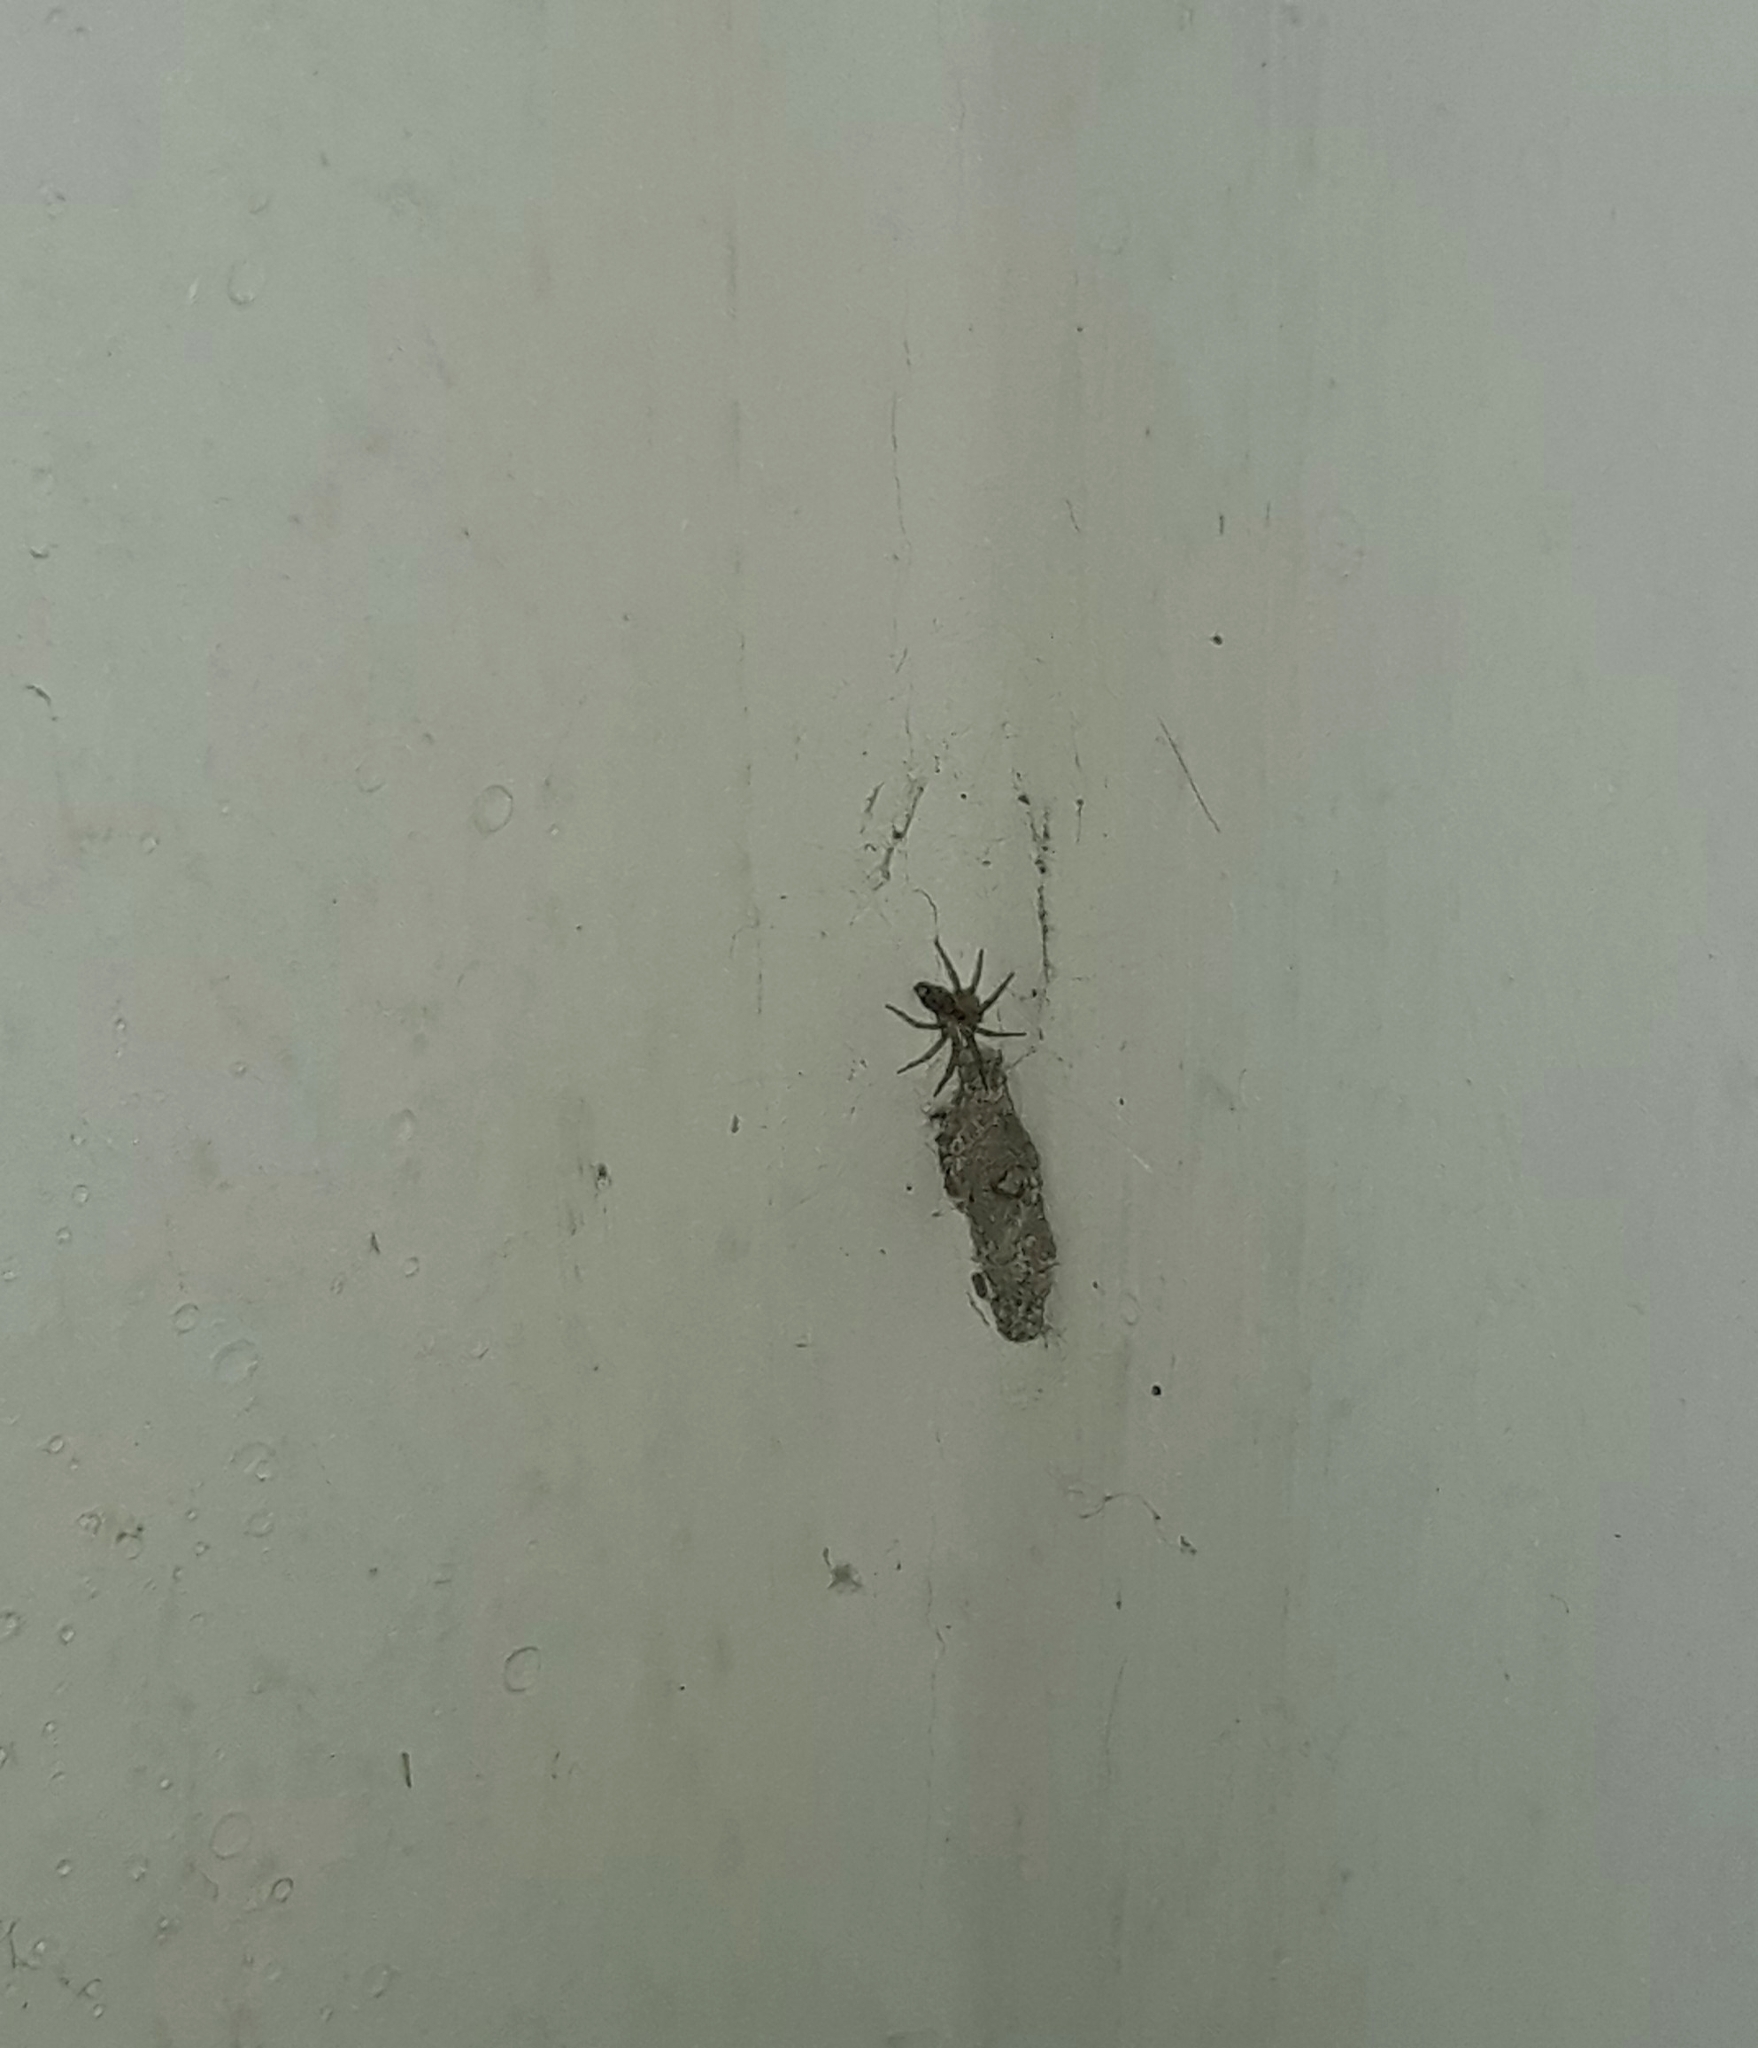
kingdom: Animalia
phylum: Arthropoda
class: Arachnida
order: Araneae
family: Oecobiidae
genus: Oecobius
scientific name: Oecobius navus
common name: Flatmesh weaver
